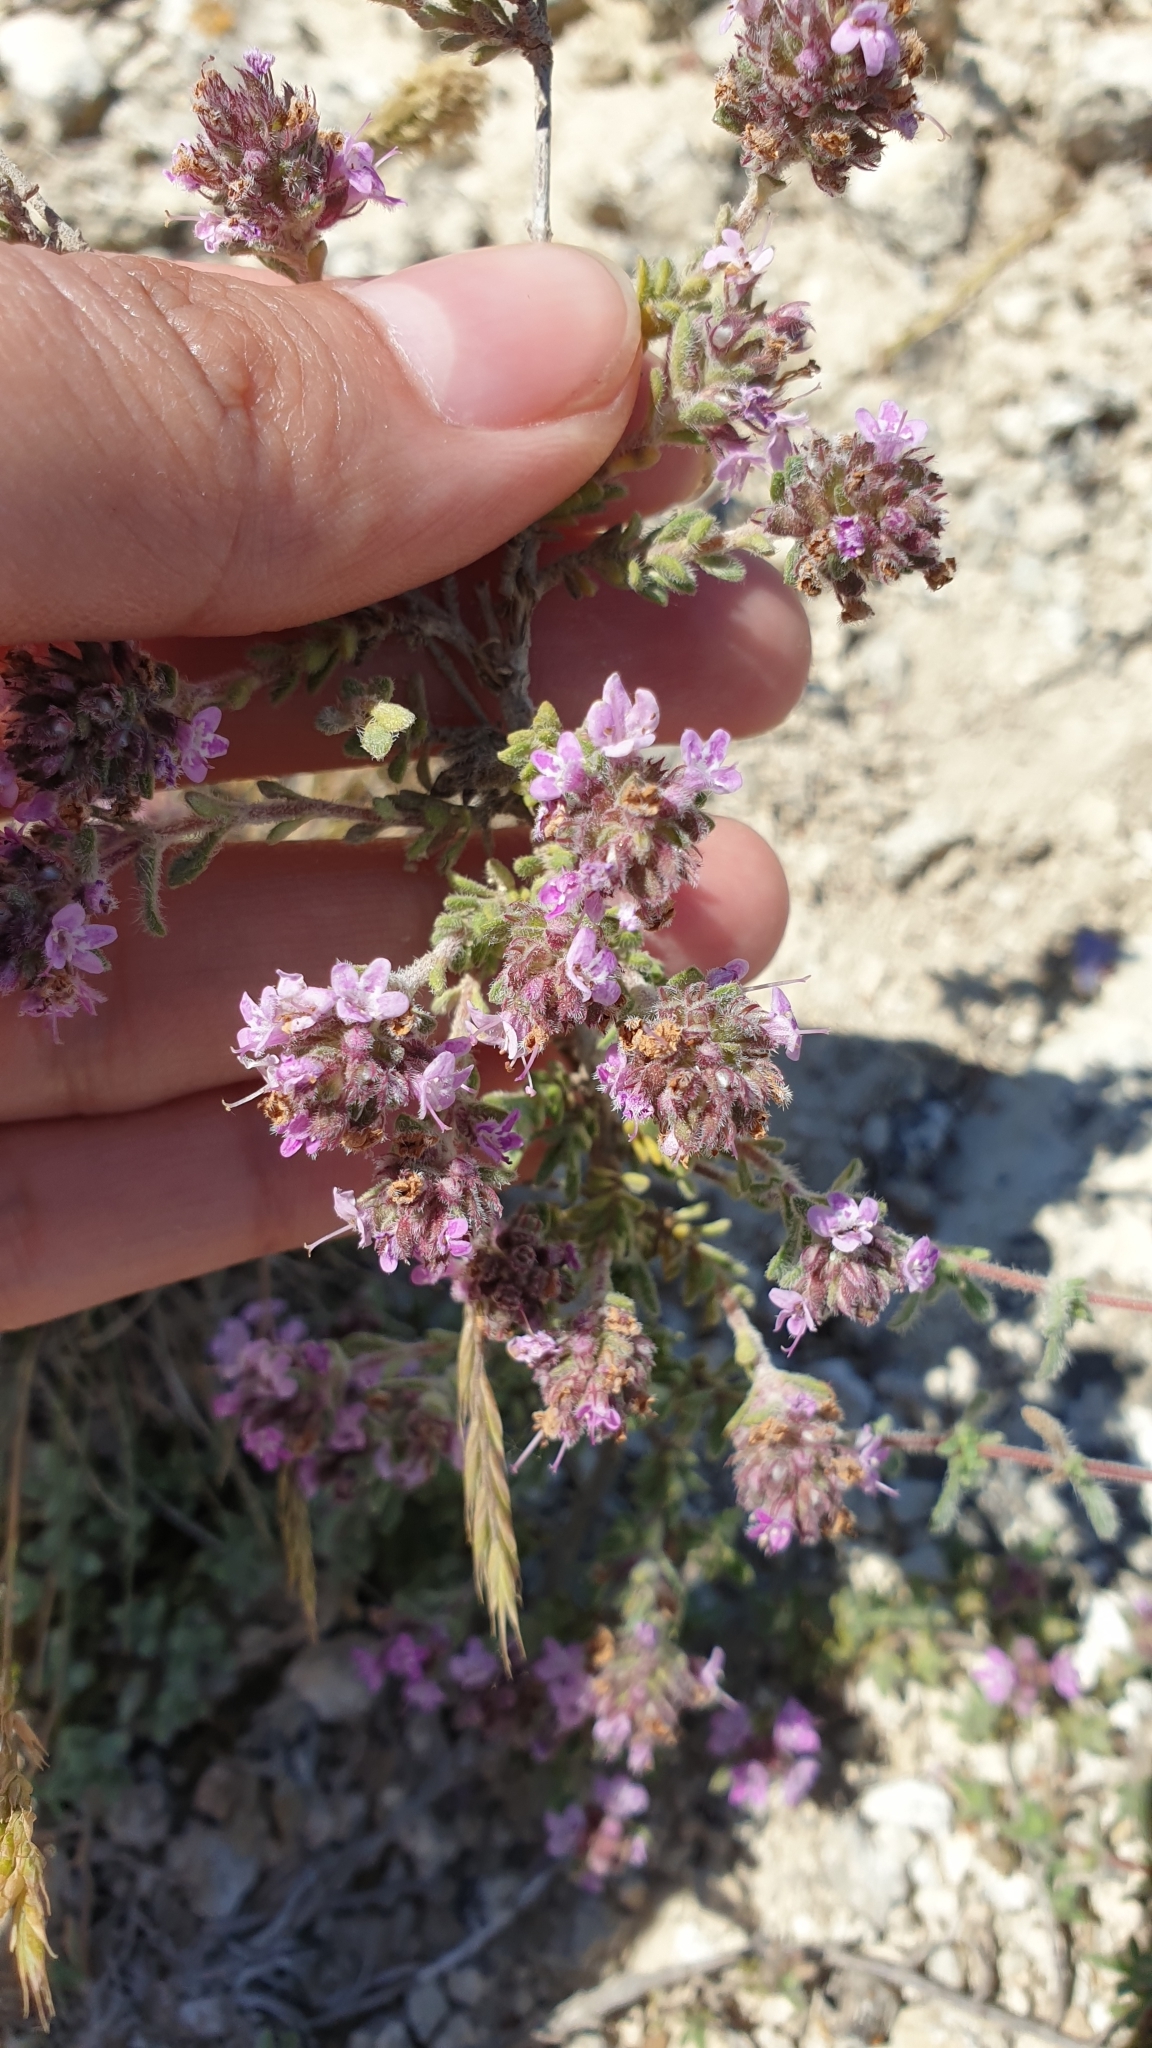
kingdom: Plantae
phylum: Tracheophyta
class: Magnoliopsida
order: Lamiales
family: Lamiaceae
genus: Thymus
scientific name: Thymus moldavicus
